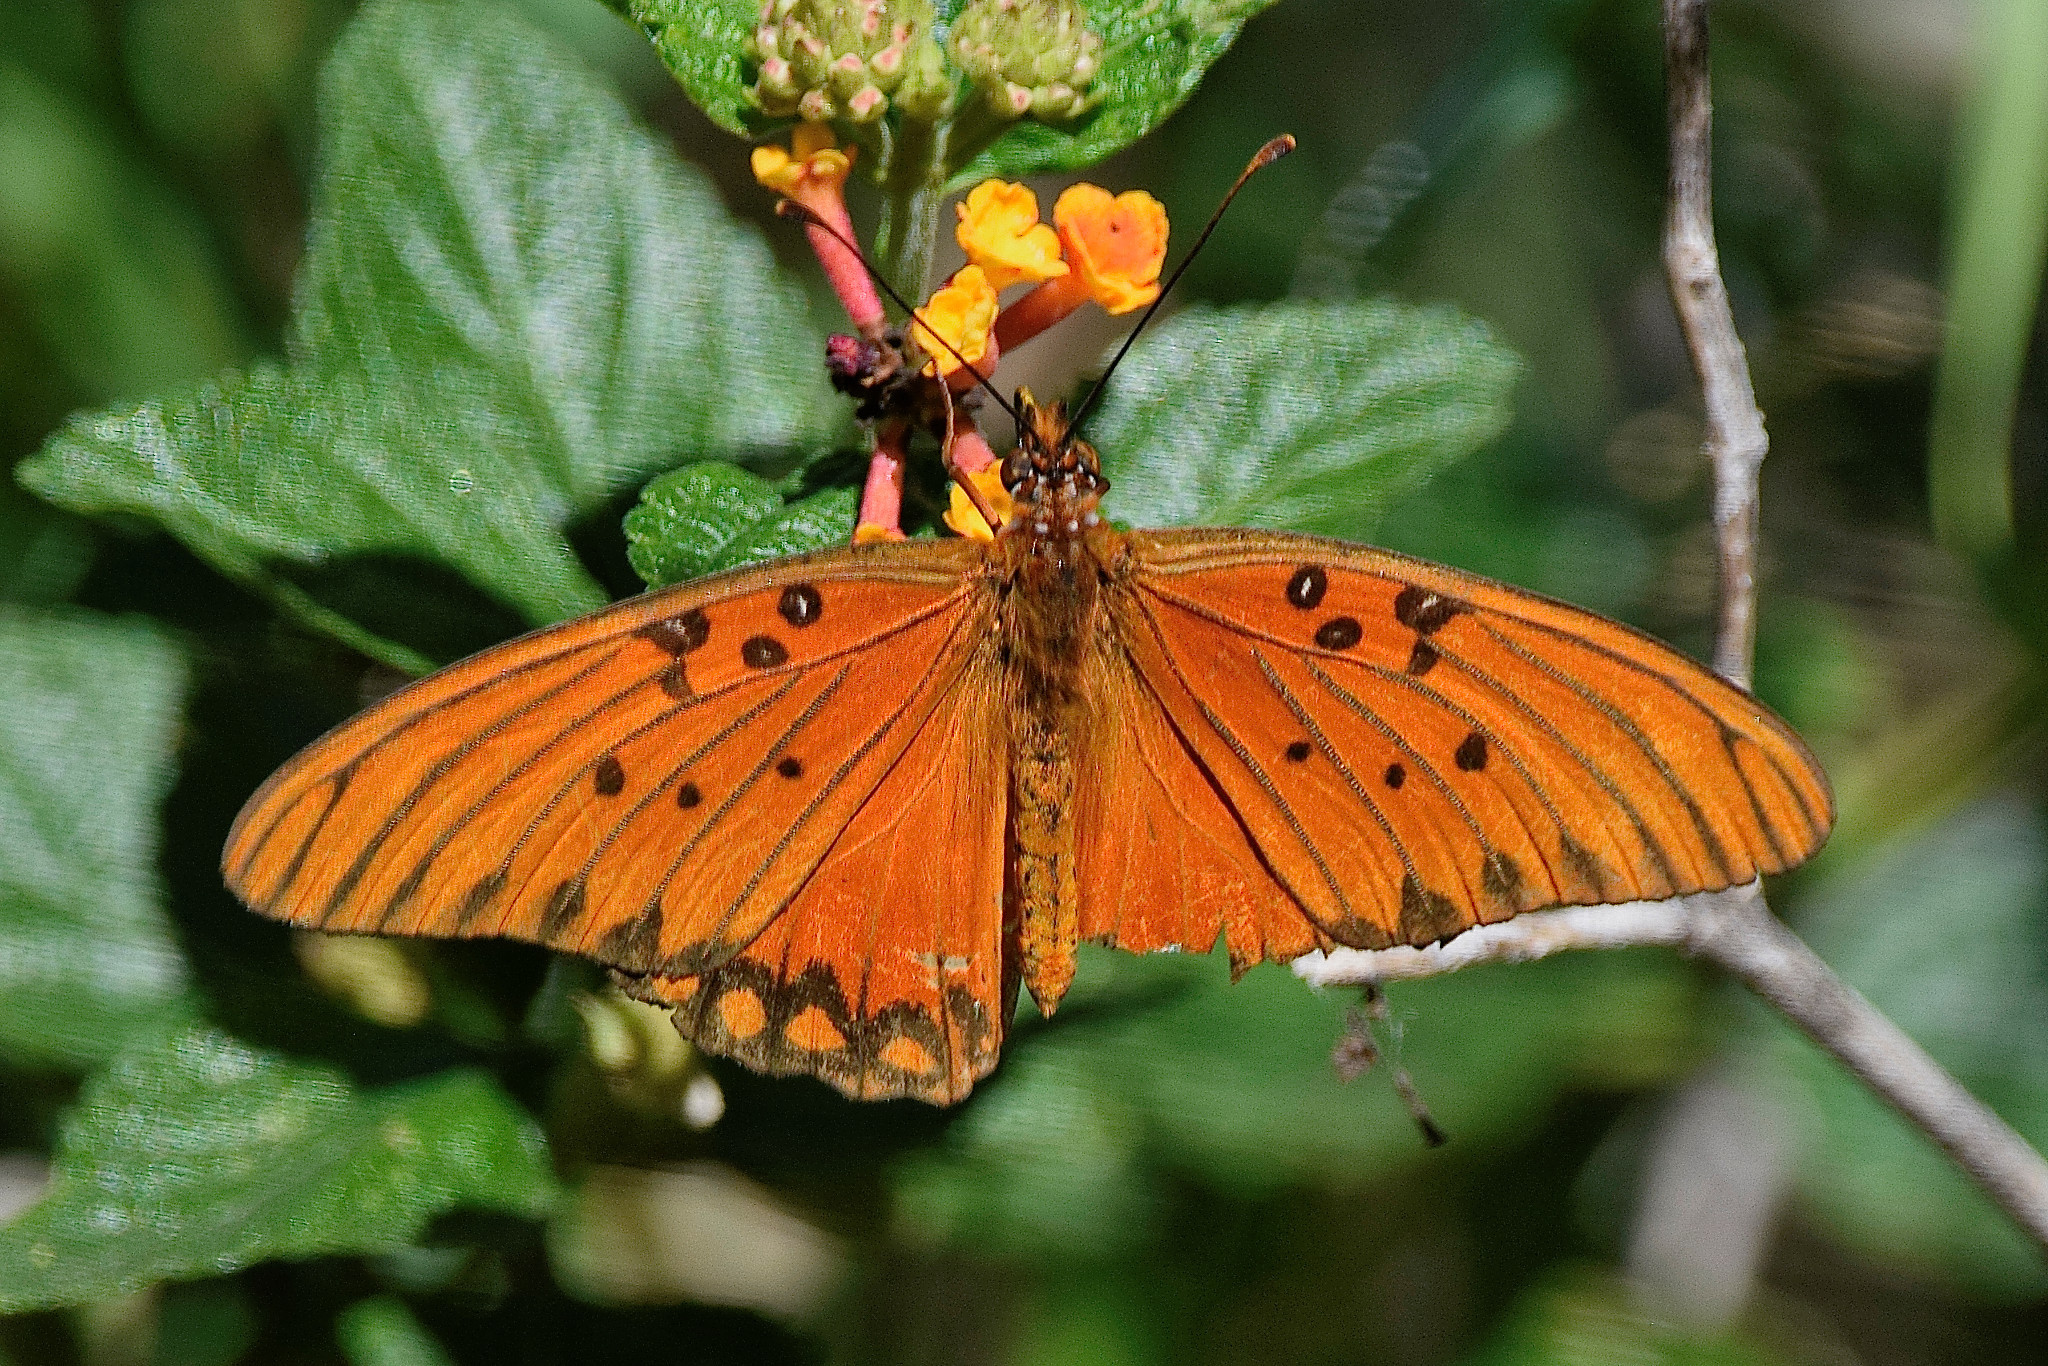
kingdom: Animalia
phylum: Arthropoda
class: Insecta
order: Lepidoptera
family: Nymphalidae
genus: Dione
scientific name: Dione vanillae
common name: Gulf fritillary
